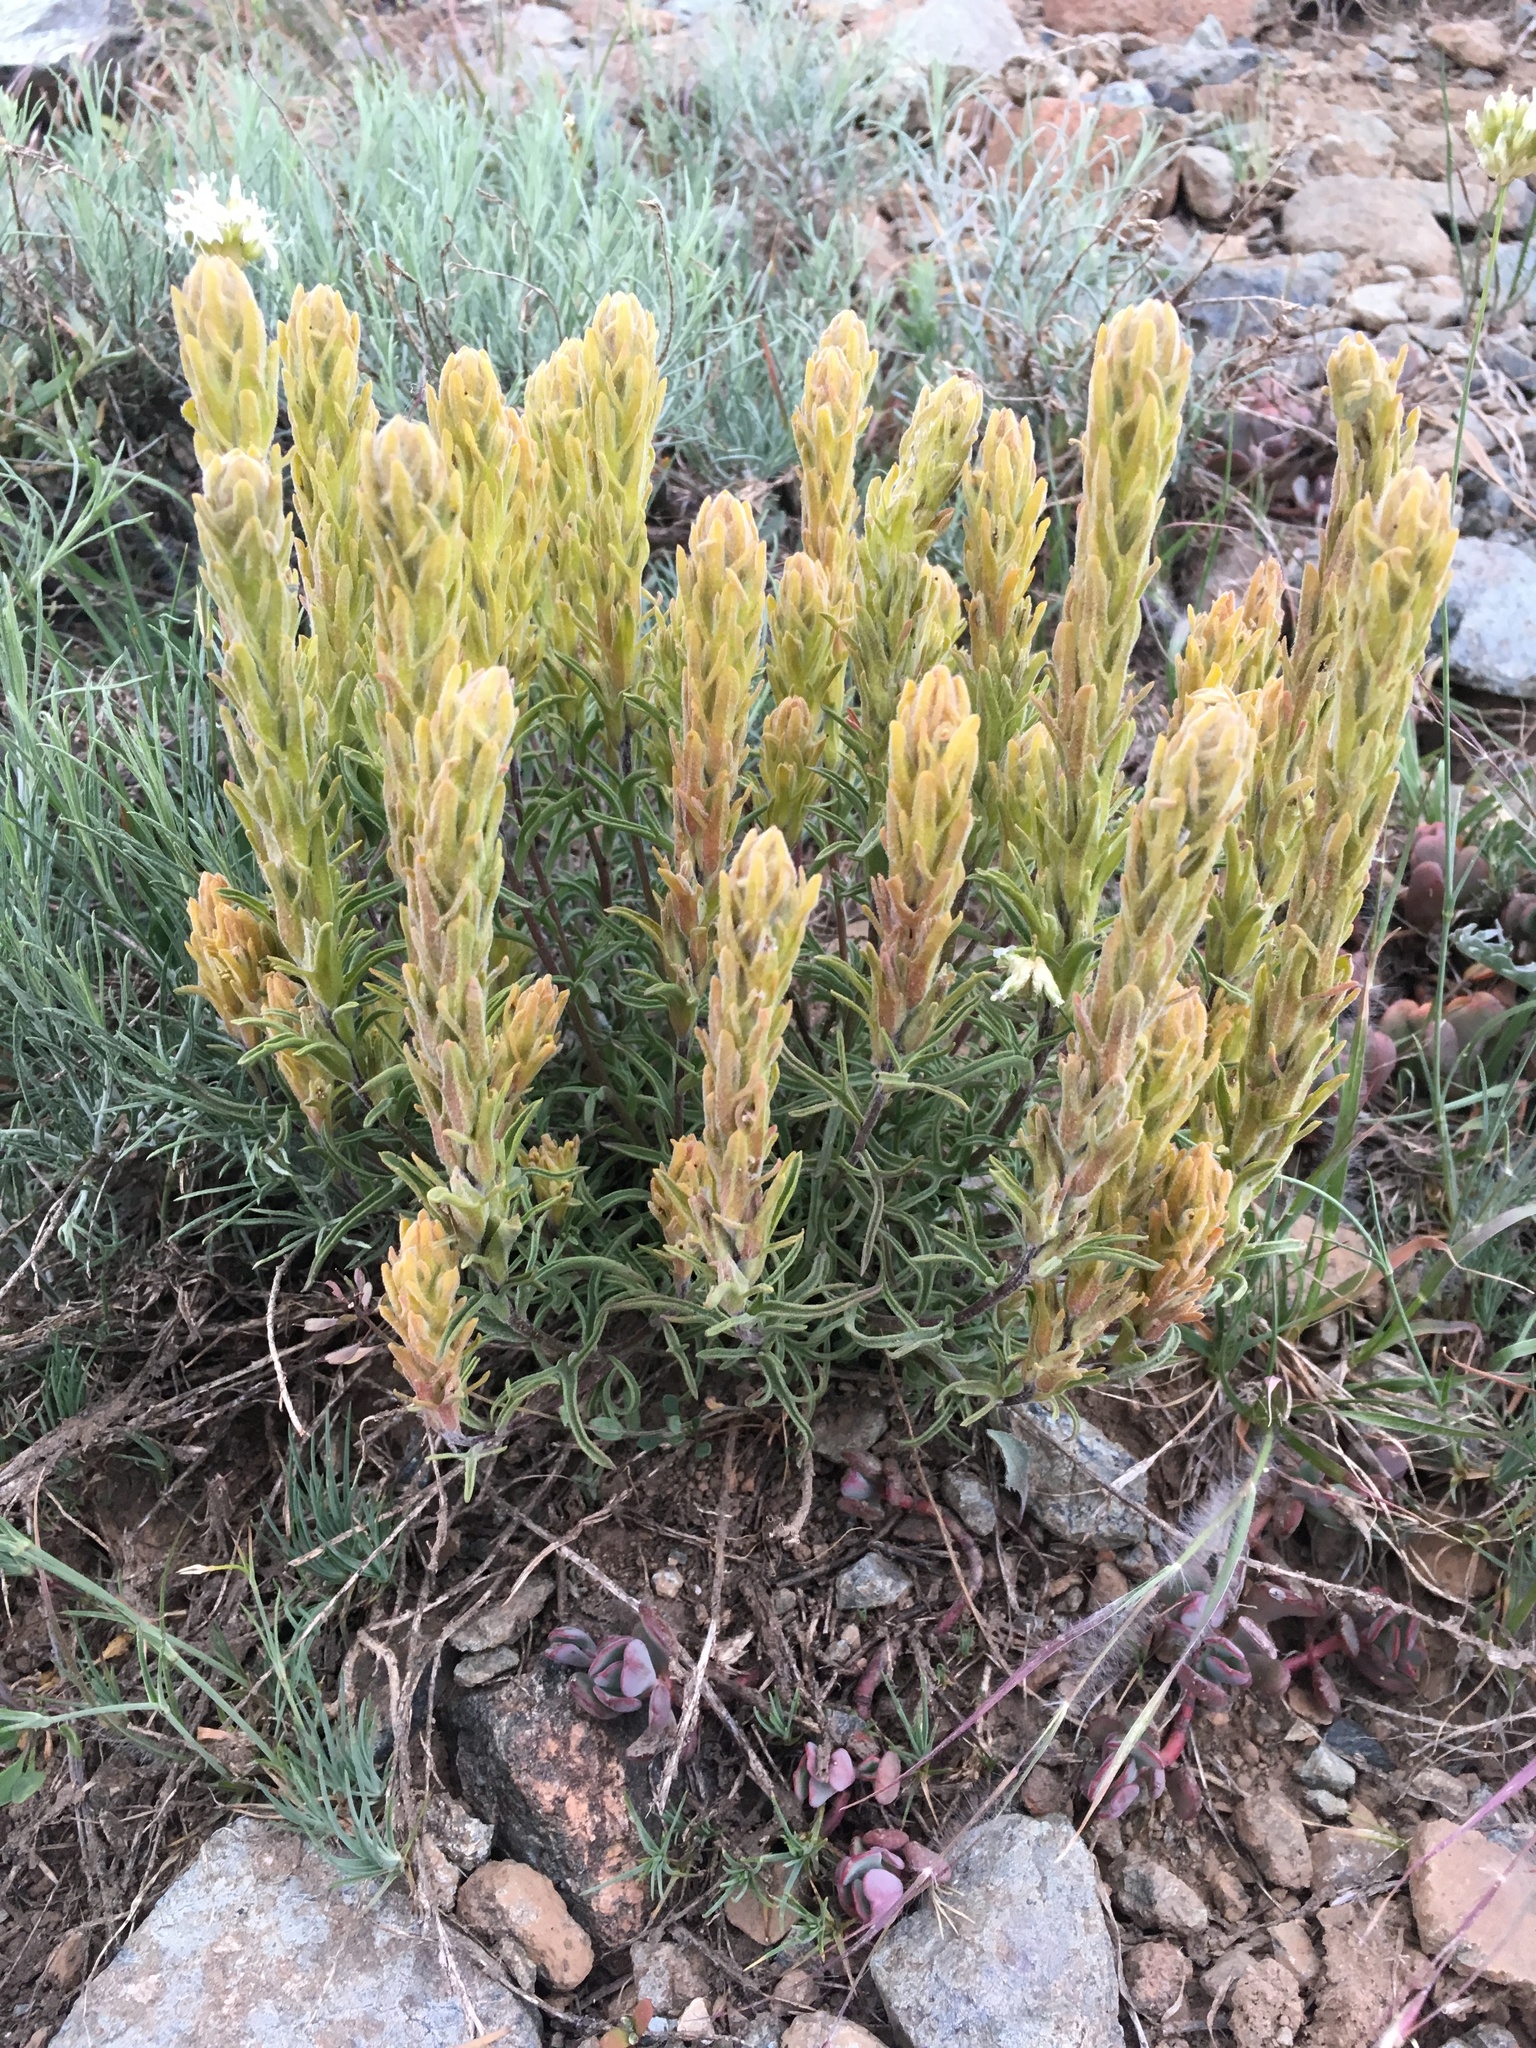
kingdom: Plantae
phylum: Tracheophyta
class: Magnoliopsida
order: Lamiales
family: Orobanchaceae
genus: Castilleja
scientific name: Castilleja arachnoidea
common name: Cobwebby indian paintbrush
